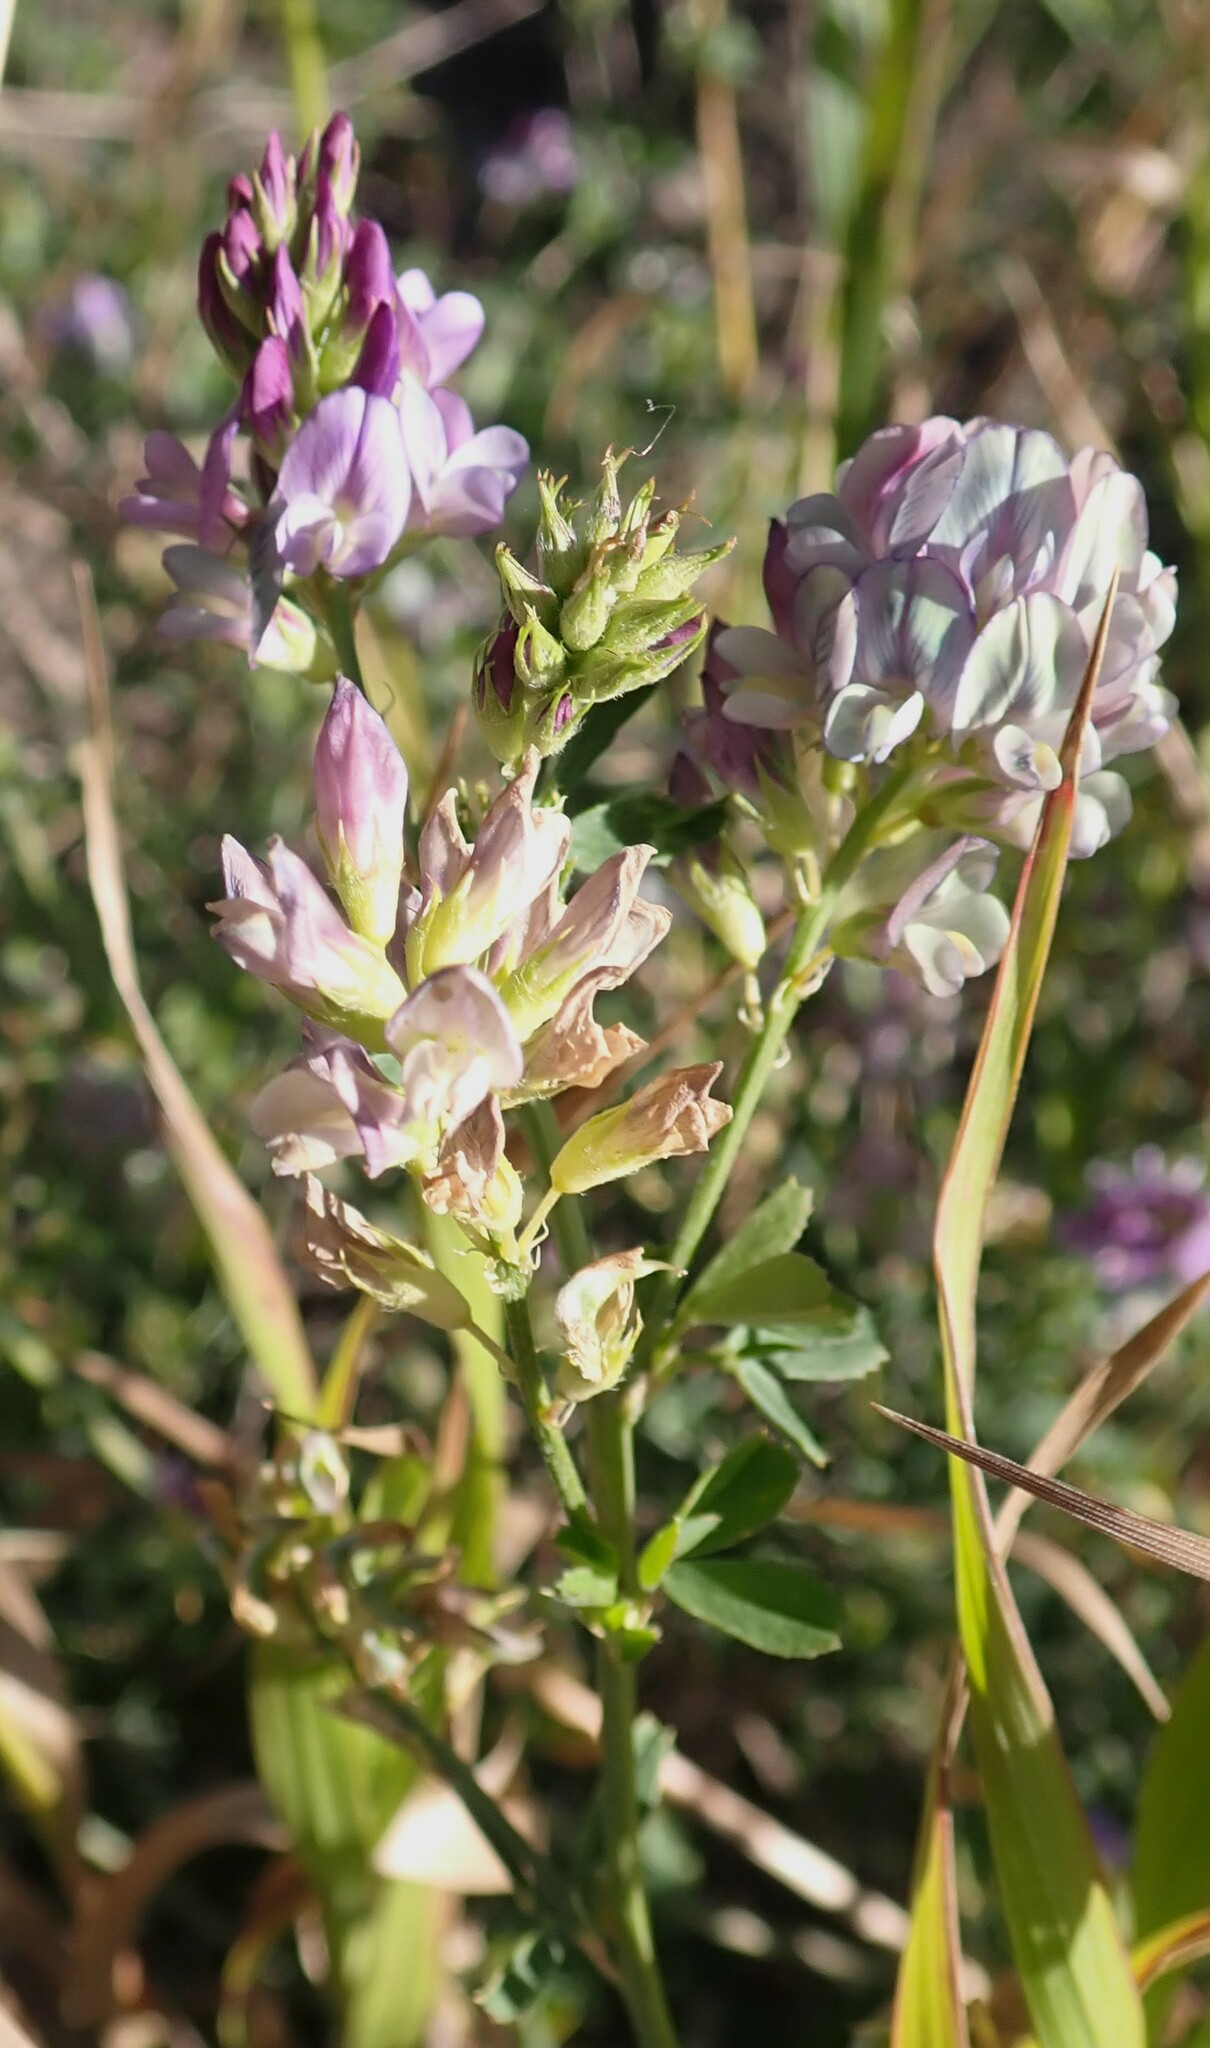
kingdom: Plantae
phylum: Tracheophyta
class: Magnoliopsida
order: Fabales
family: Fabaceae
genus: Medicago
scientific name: Medicago sativa
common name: Alfalfa
